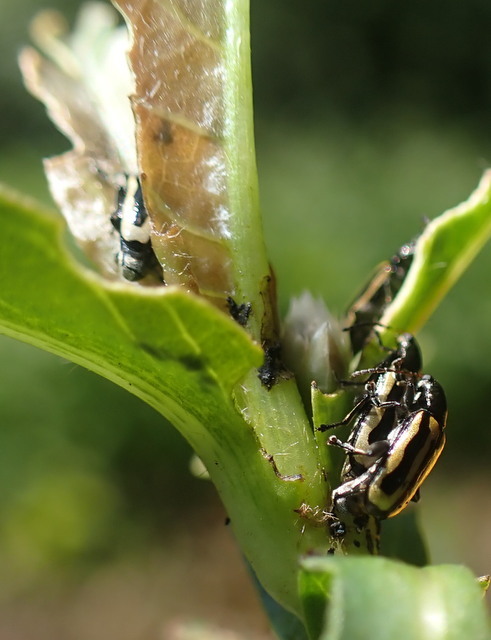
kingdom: Animalia
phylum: Arthropoda
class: Insecta
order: Coleoptera
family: Chrysomelidae
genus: Agasicles
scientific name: Agasicles hygrophila
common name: Alligatorweed flea beetle
